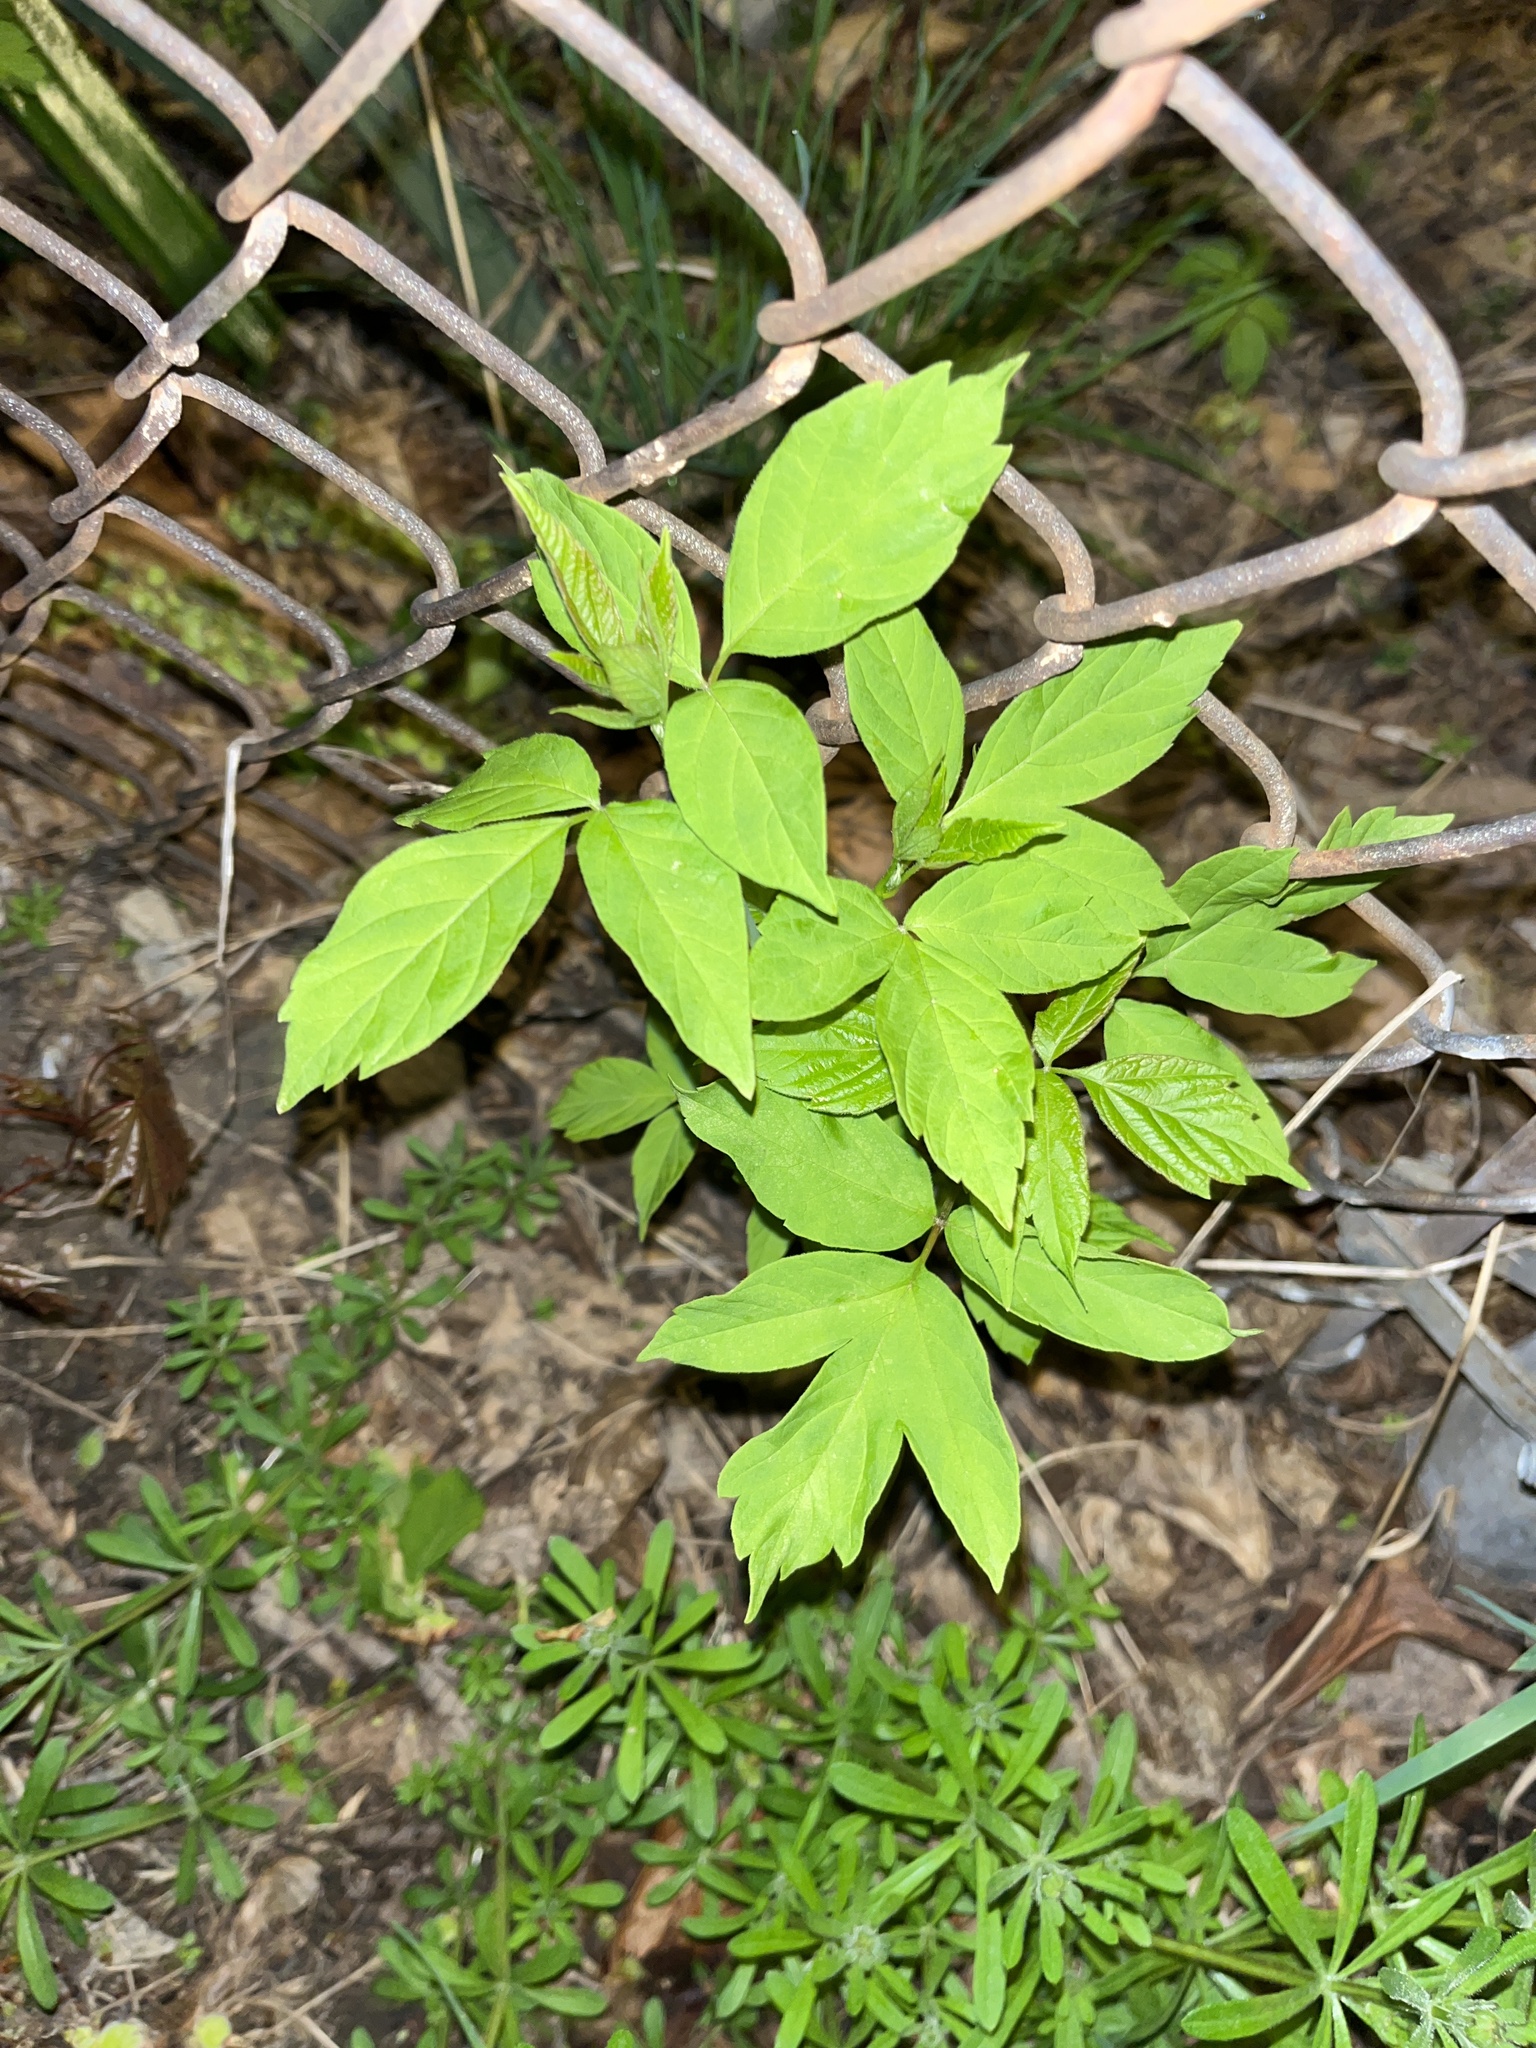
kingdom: Plantae
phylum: Tracheophyta
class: Magnoliopsida
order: Sapindales
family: Sapindaceae
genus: Acer
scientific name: Acer negundo
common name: Ashleaf maple
